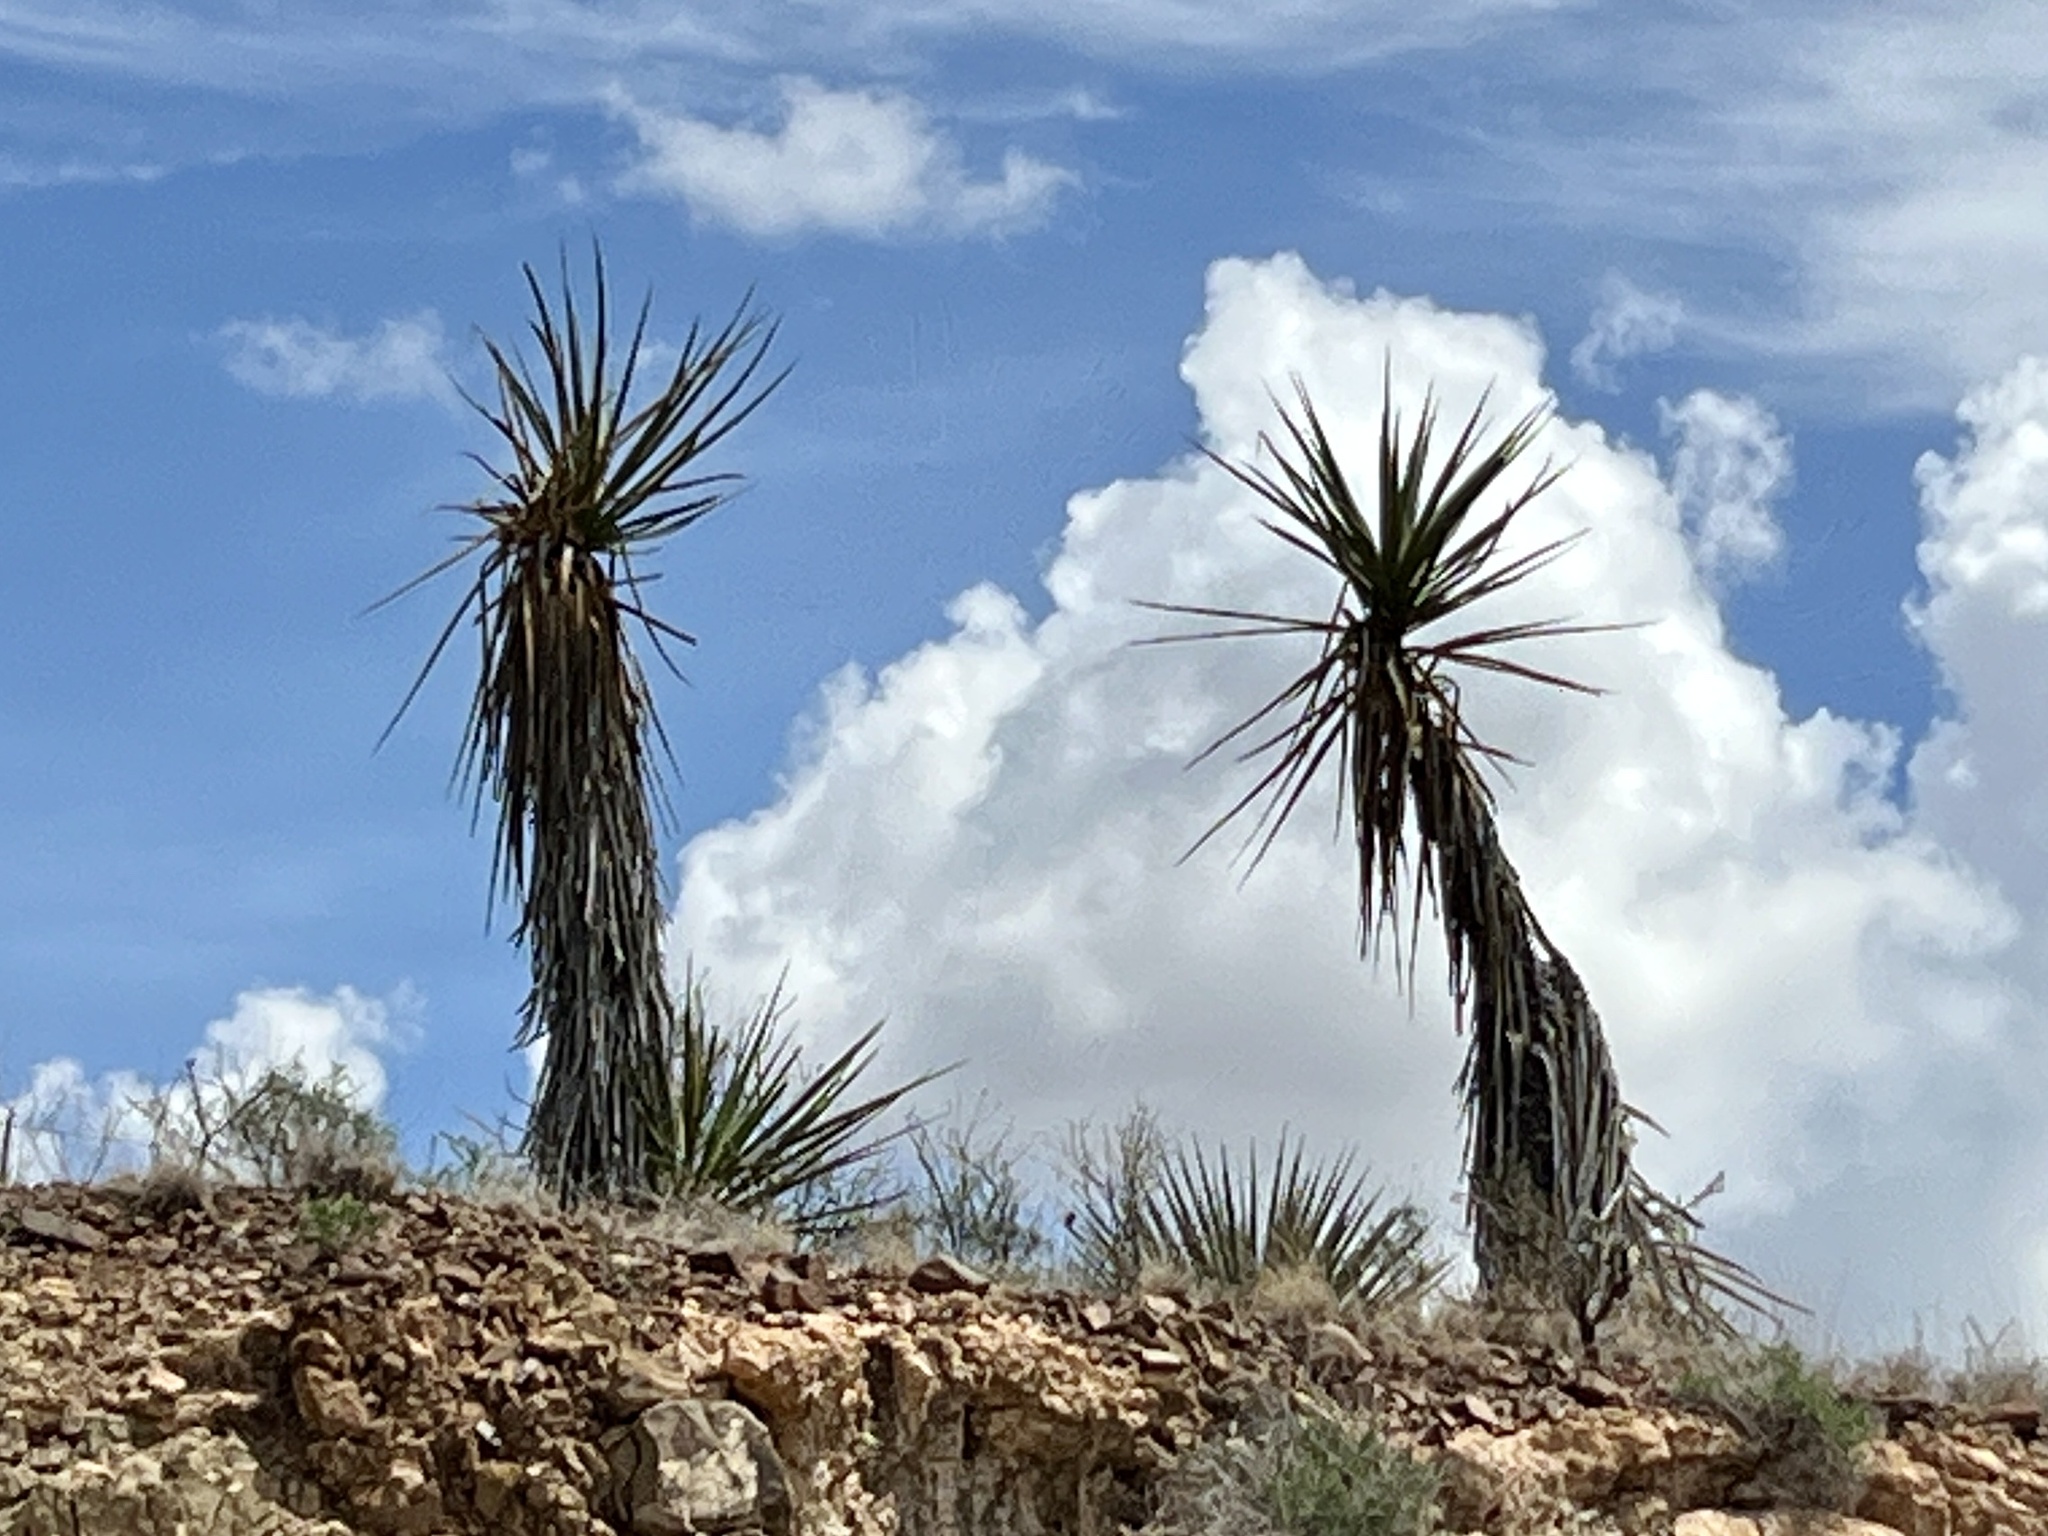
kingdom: Plantae
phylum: Tracheophyta
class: Liliopsida
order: Asparagales
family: Asparagaceae
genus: Yucca
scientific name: Yucca treculiana
